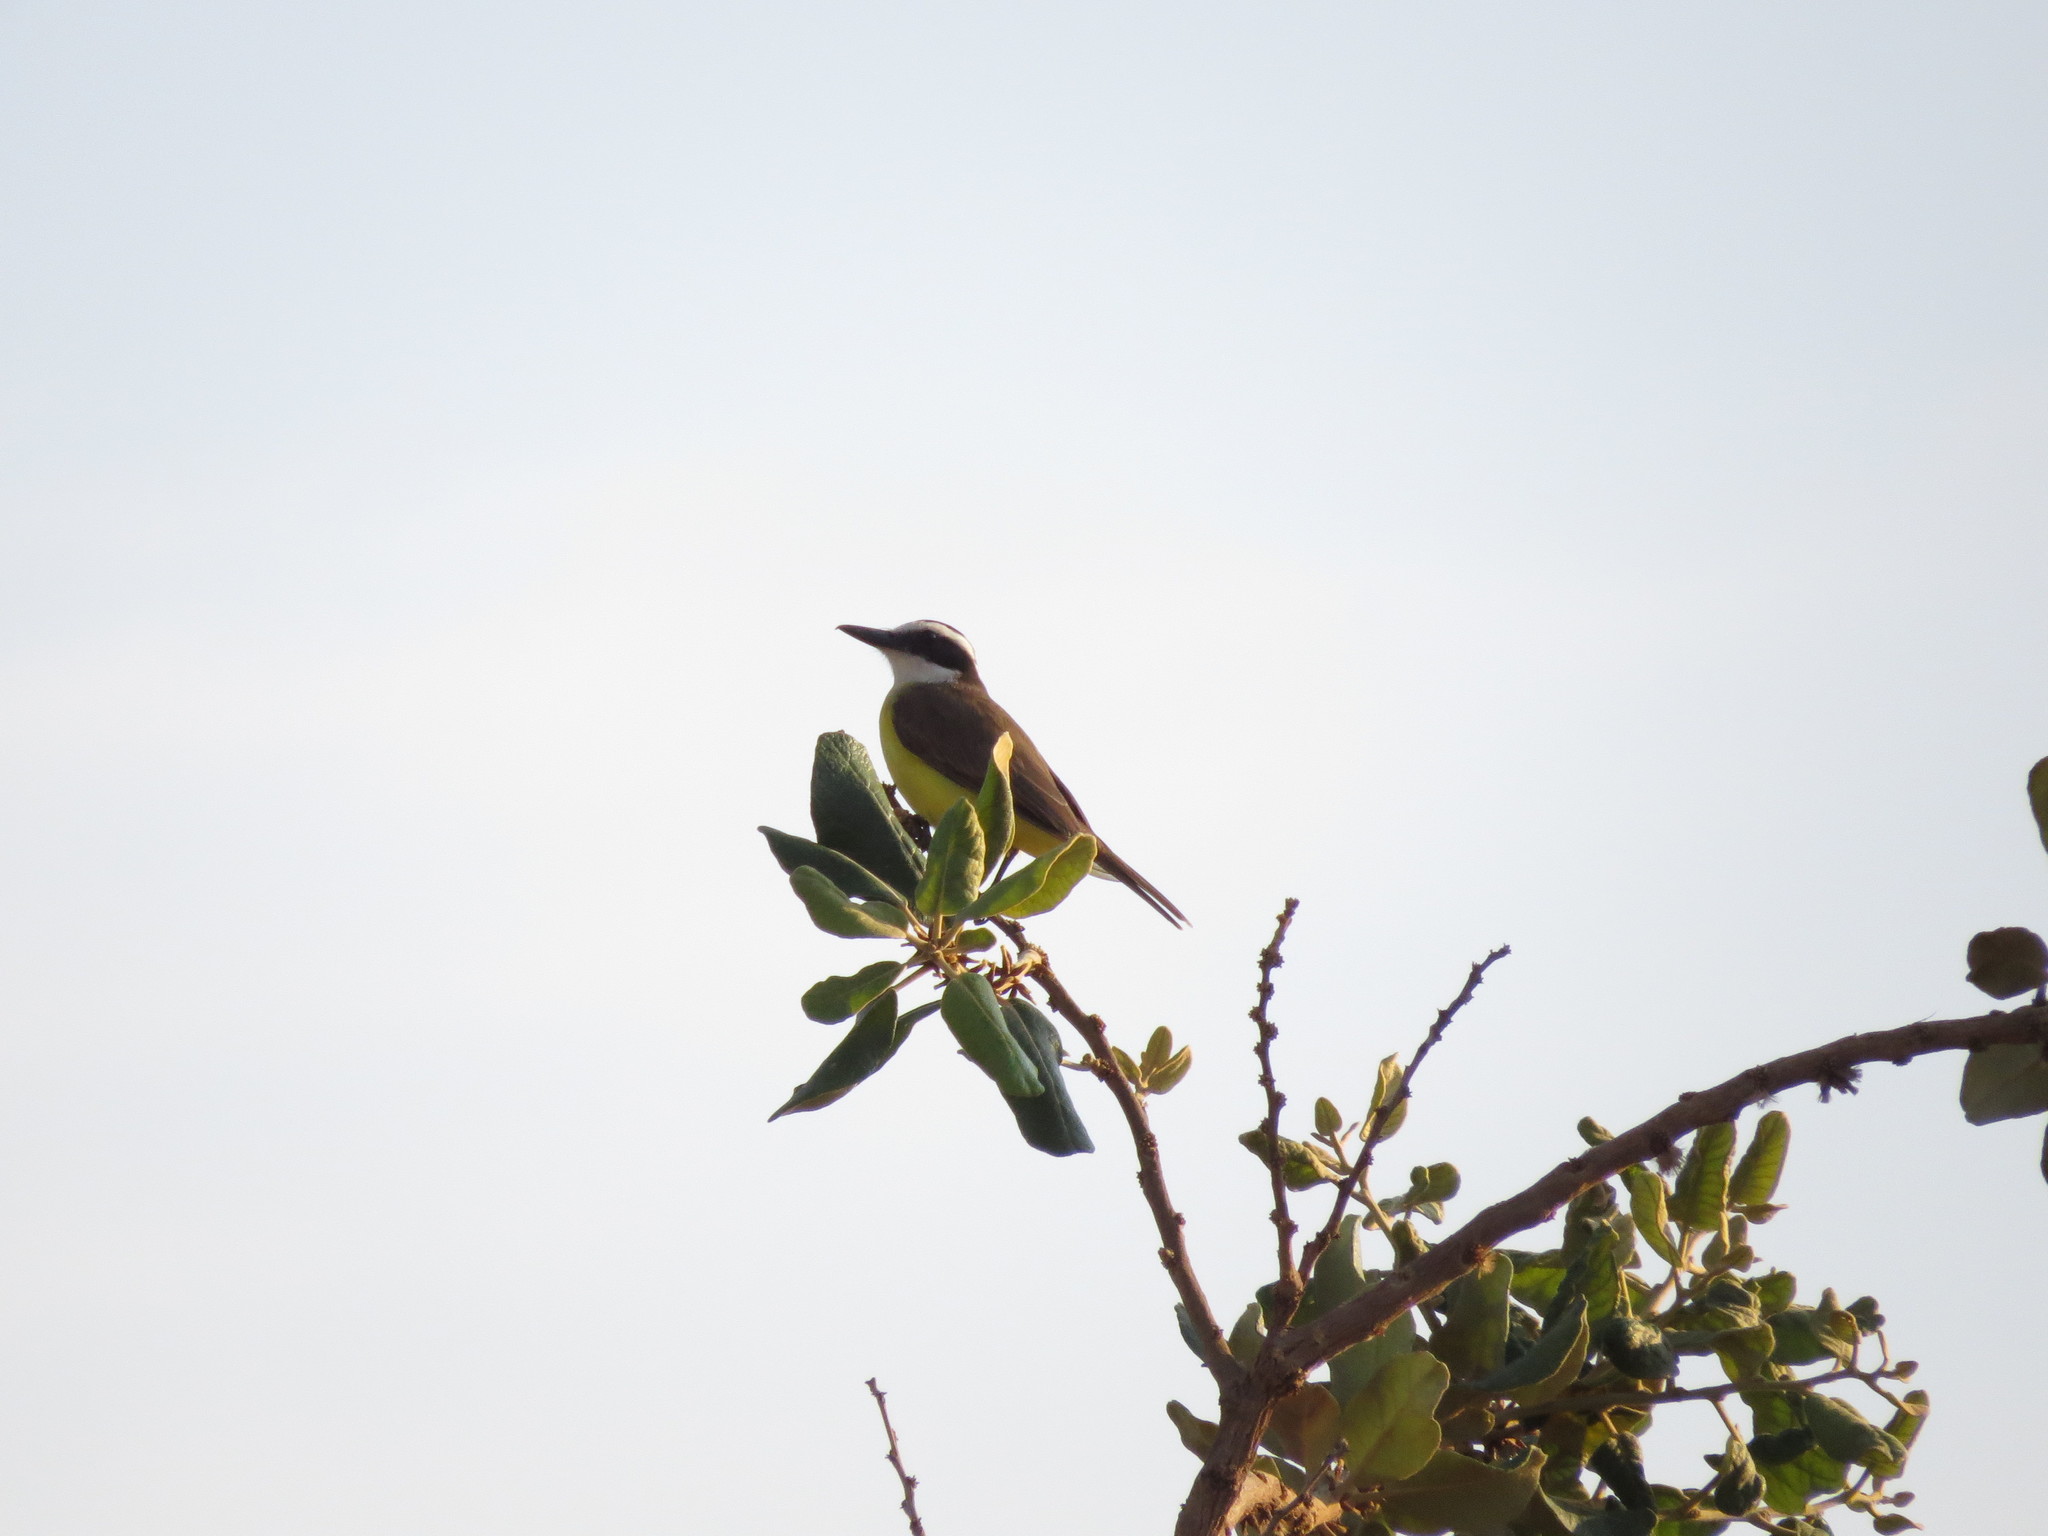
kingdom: Animalia
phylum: Chordata
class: Aves
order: Passeriformes
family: Tyrannidae
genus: Pitangus
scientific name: Pitangus sulphuratus
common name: Great kiskadee
